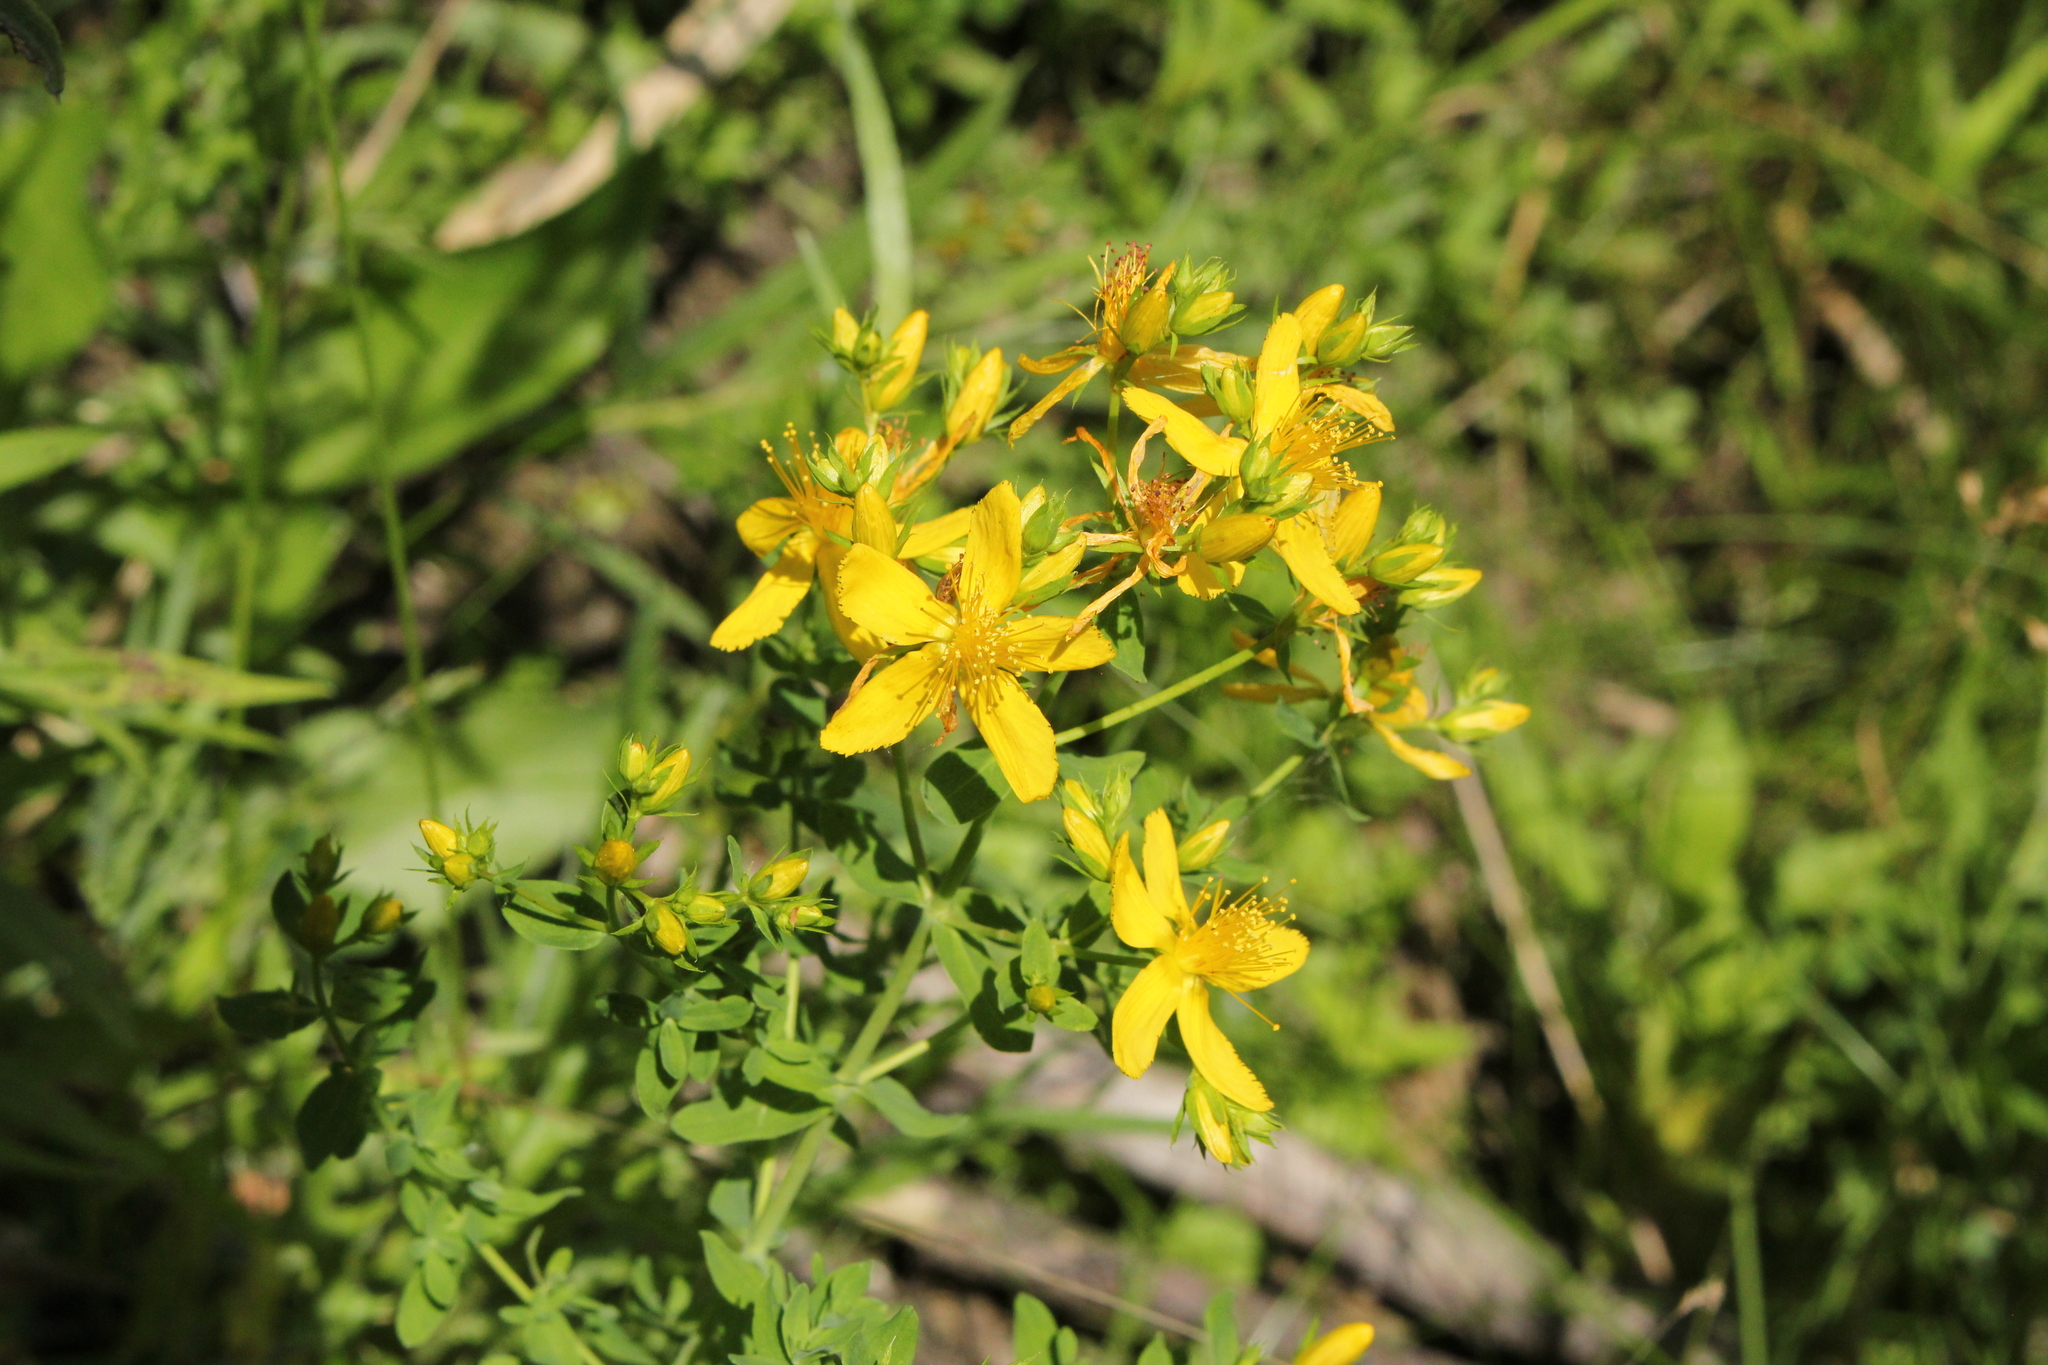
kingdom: Plantae
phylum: Tracheophyta
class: Magnoliopsida
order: Malpighiales
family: Hypericaceae
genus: Hypericum
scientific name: Hypericum perforatum
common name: Common st. johnswort
